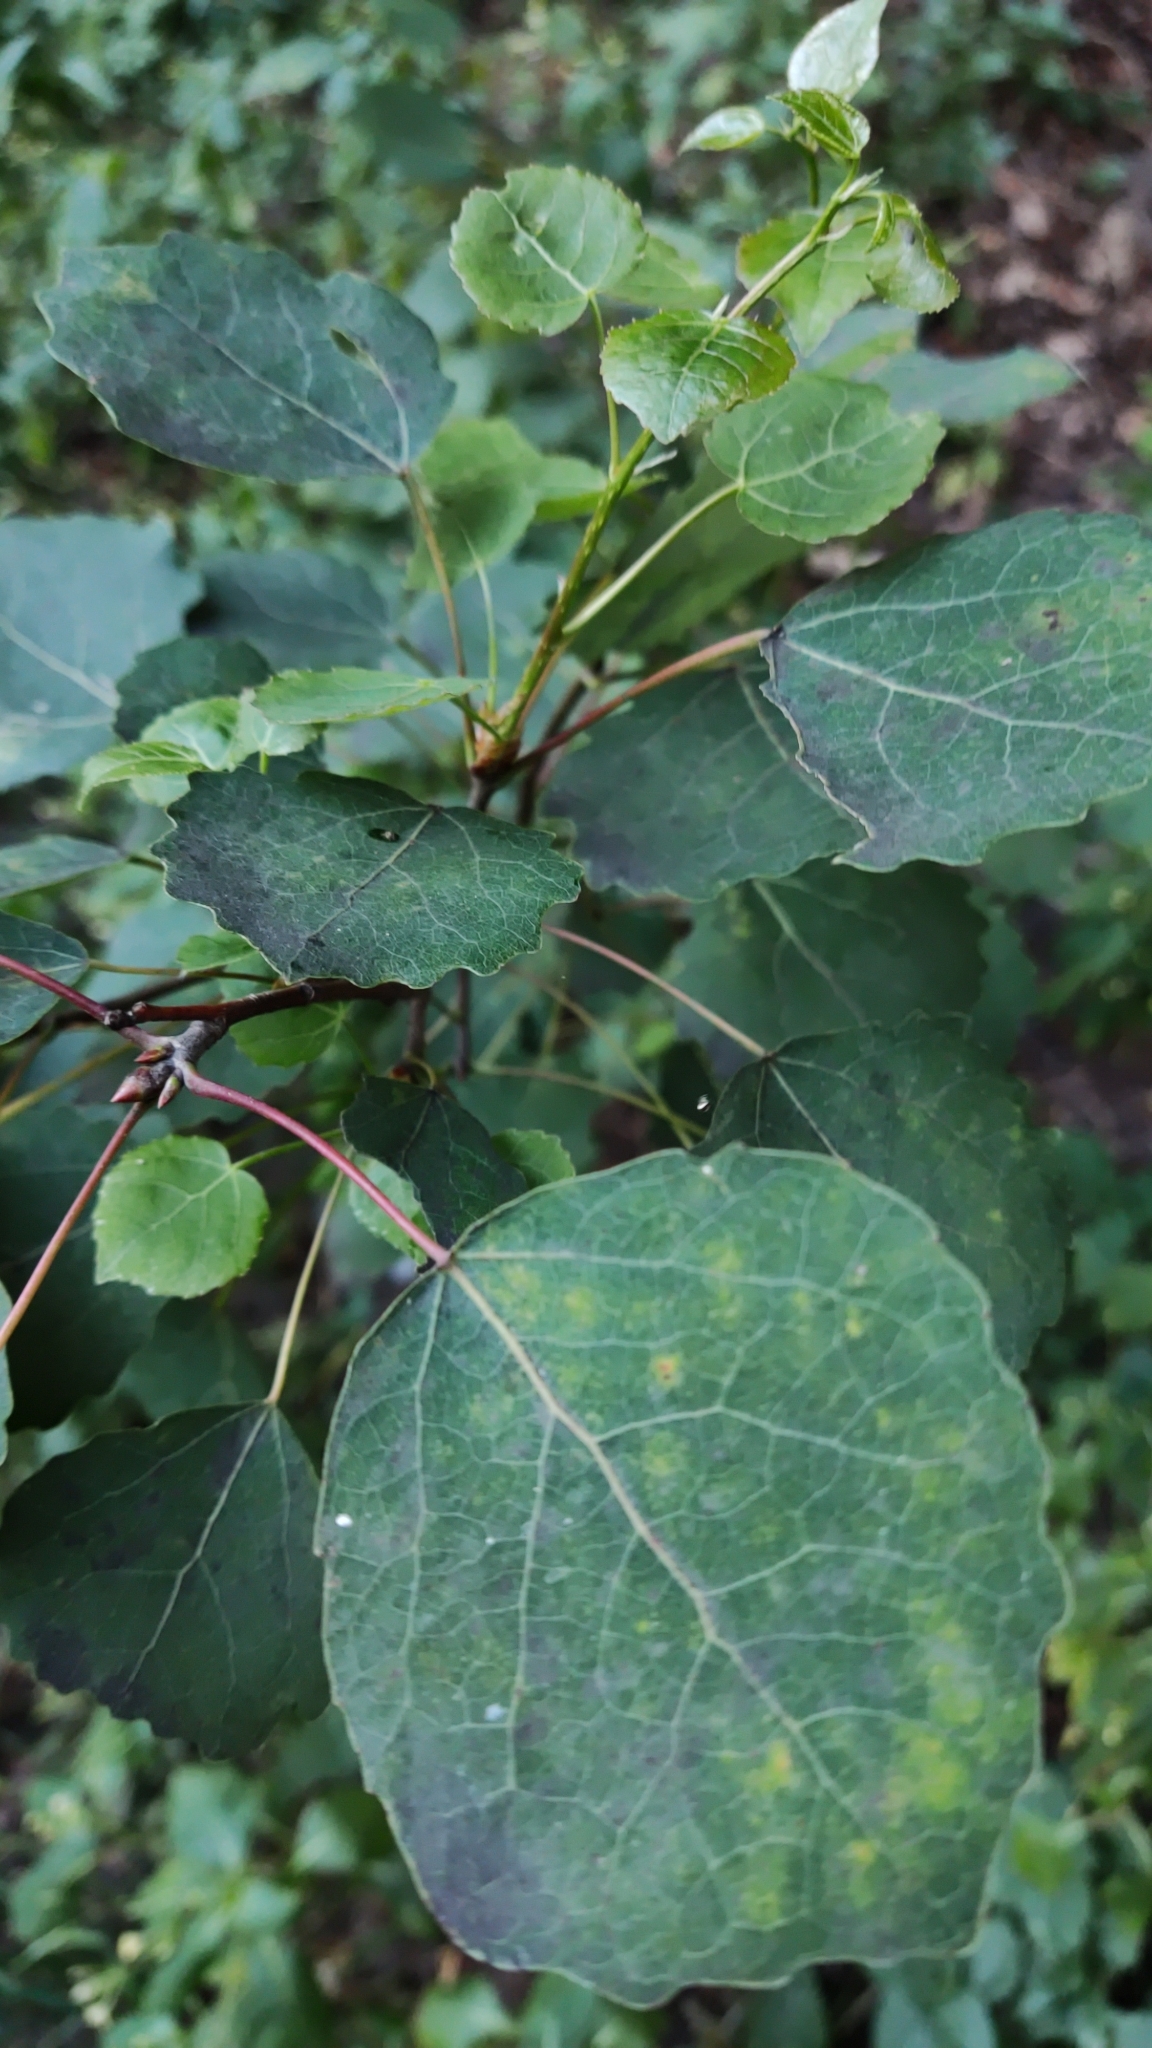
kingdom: Plantae
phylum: Tracheophyta
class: Magnoliopsida
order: Malpighiales
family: Salicaceae
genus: Populus
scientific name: Populus tremula
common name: European aspen
